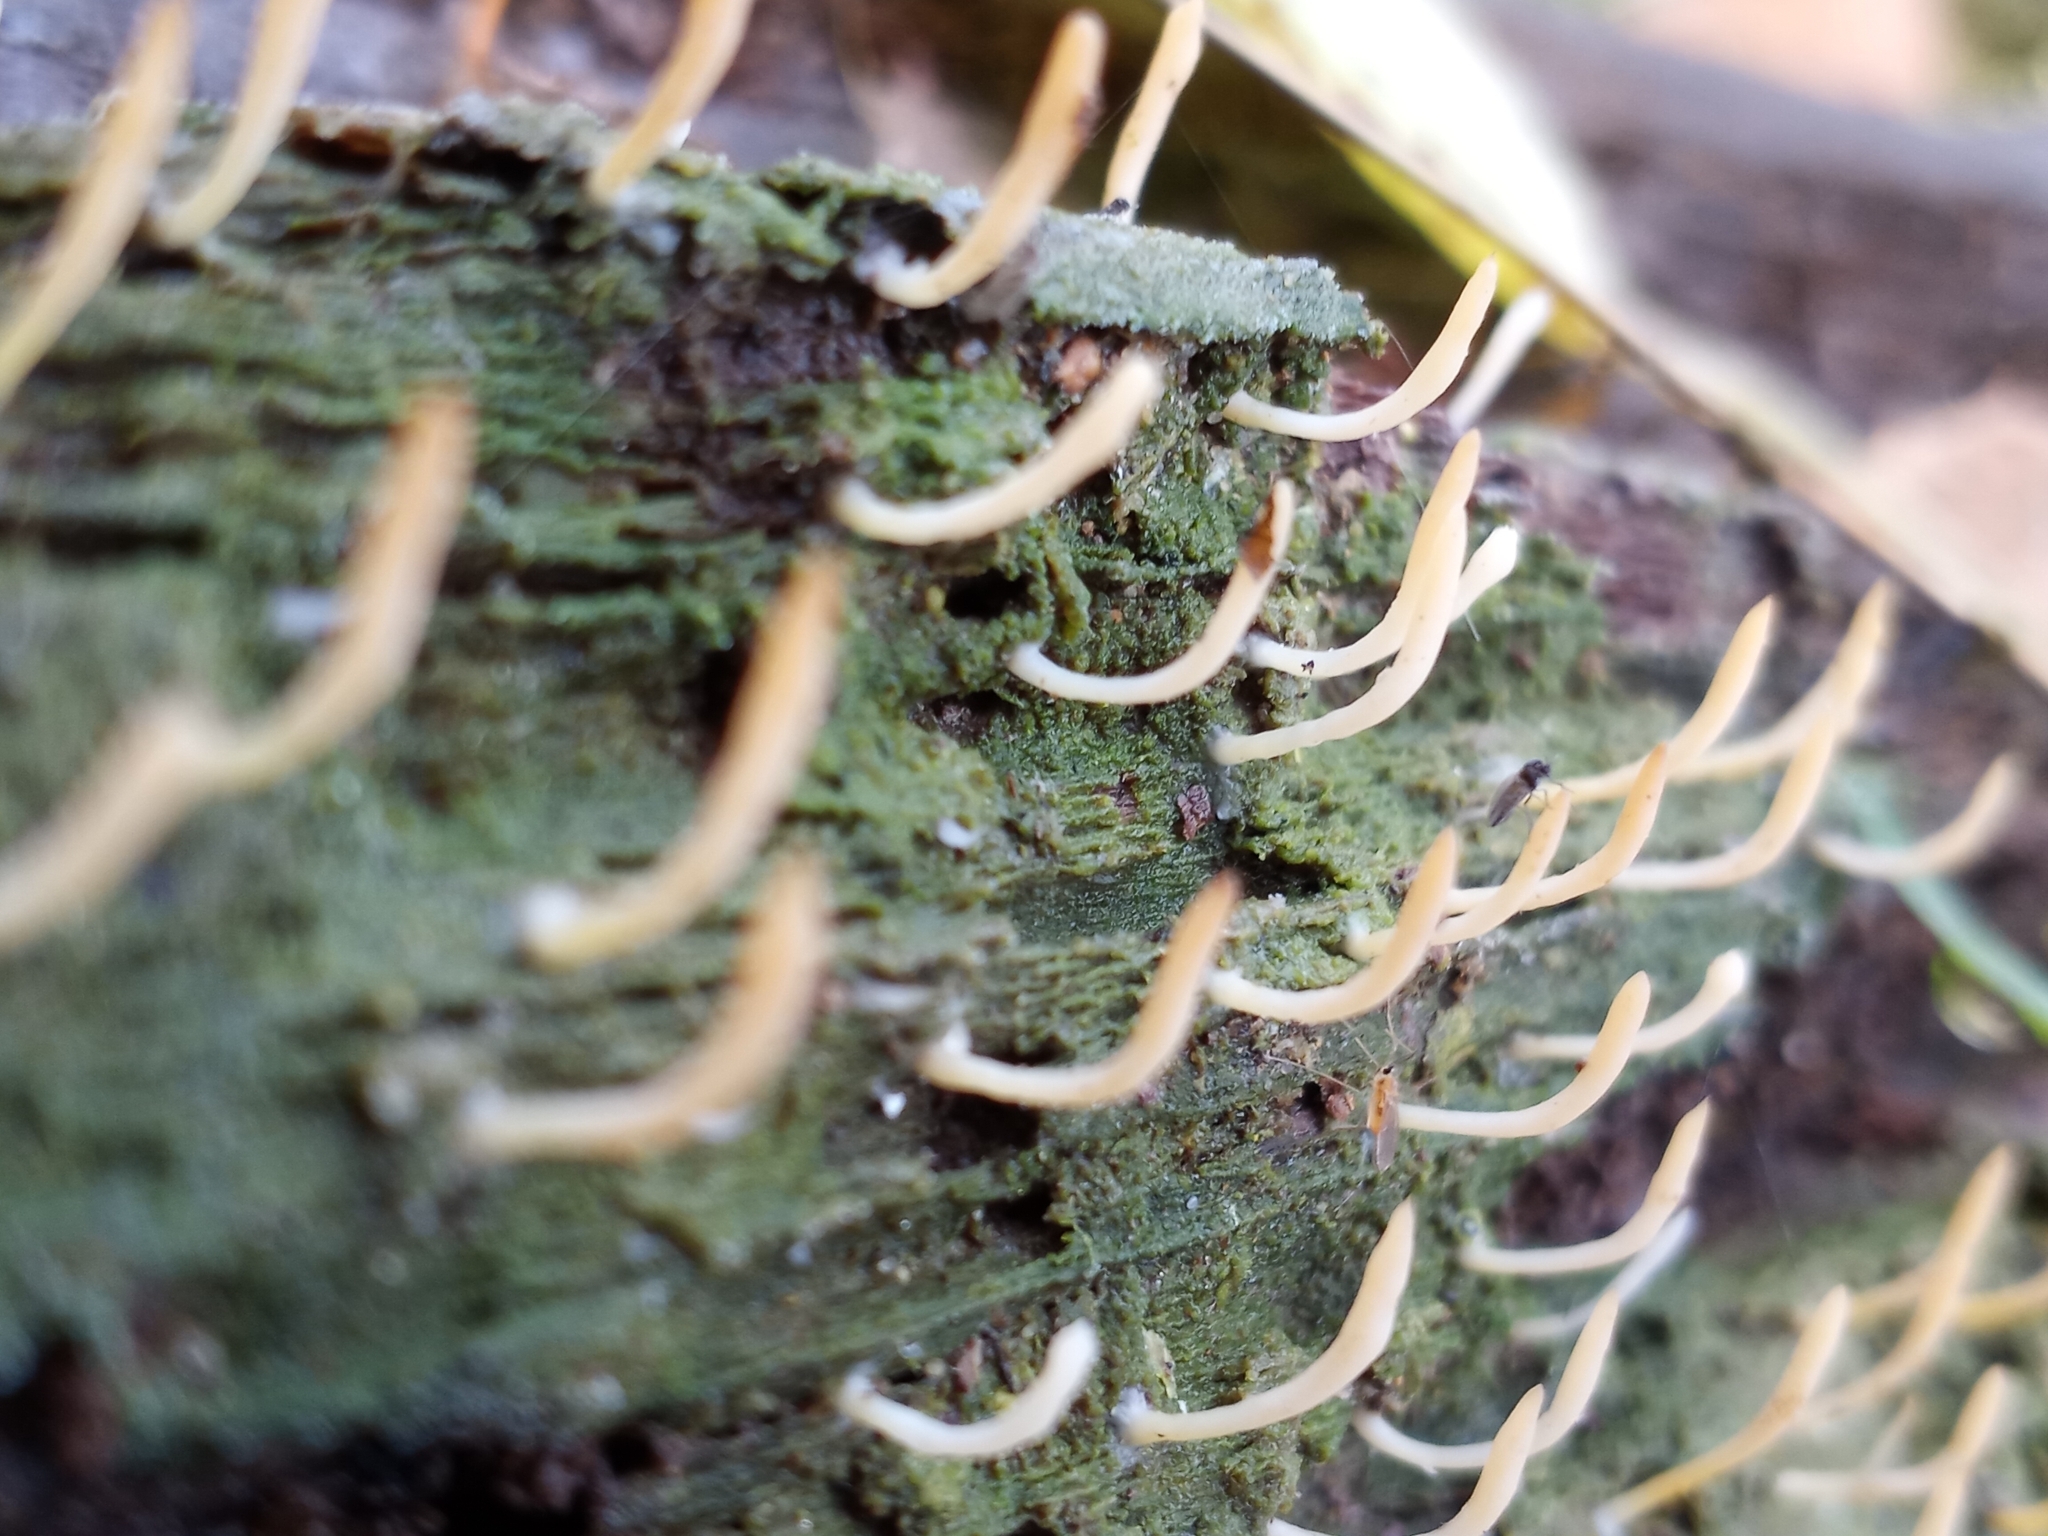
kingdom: Fungi
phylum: Basidiomycota
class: Agaricomycetes
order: Cantharellales
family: Hydnaceae
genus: Multiclavula
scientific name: Multiclavula mucida
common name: White green-algae coral
